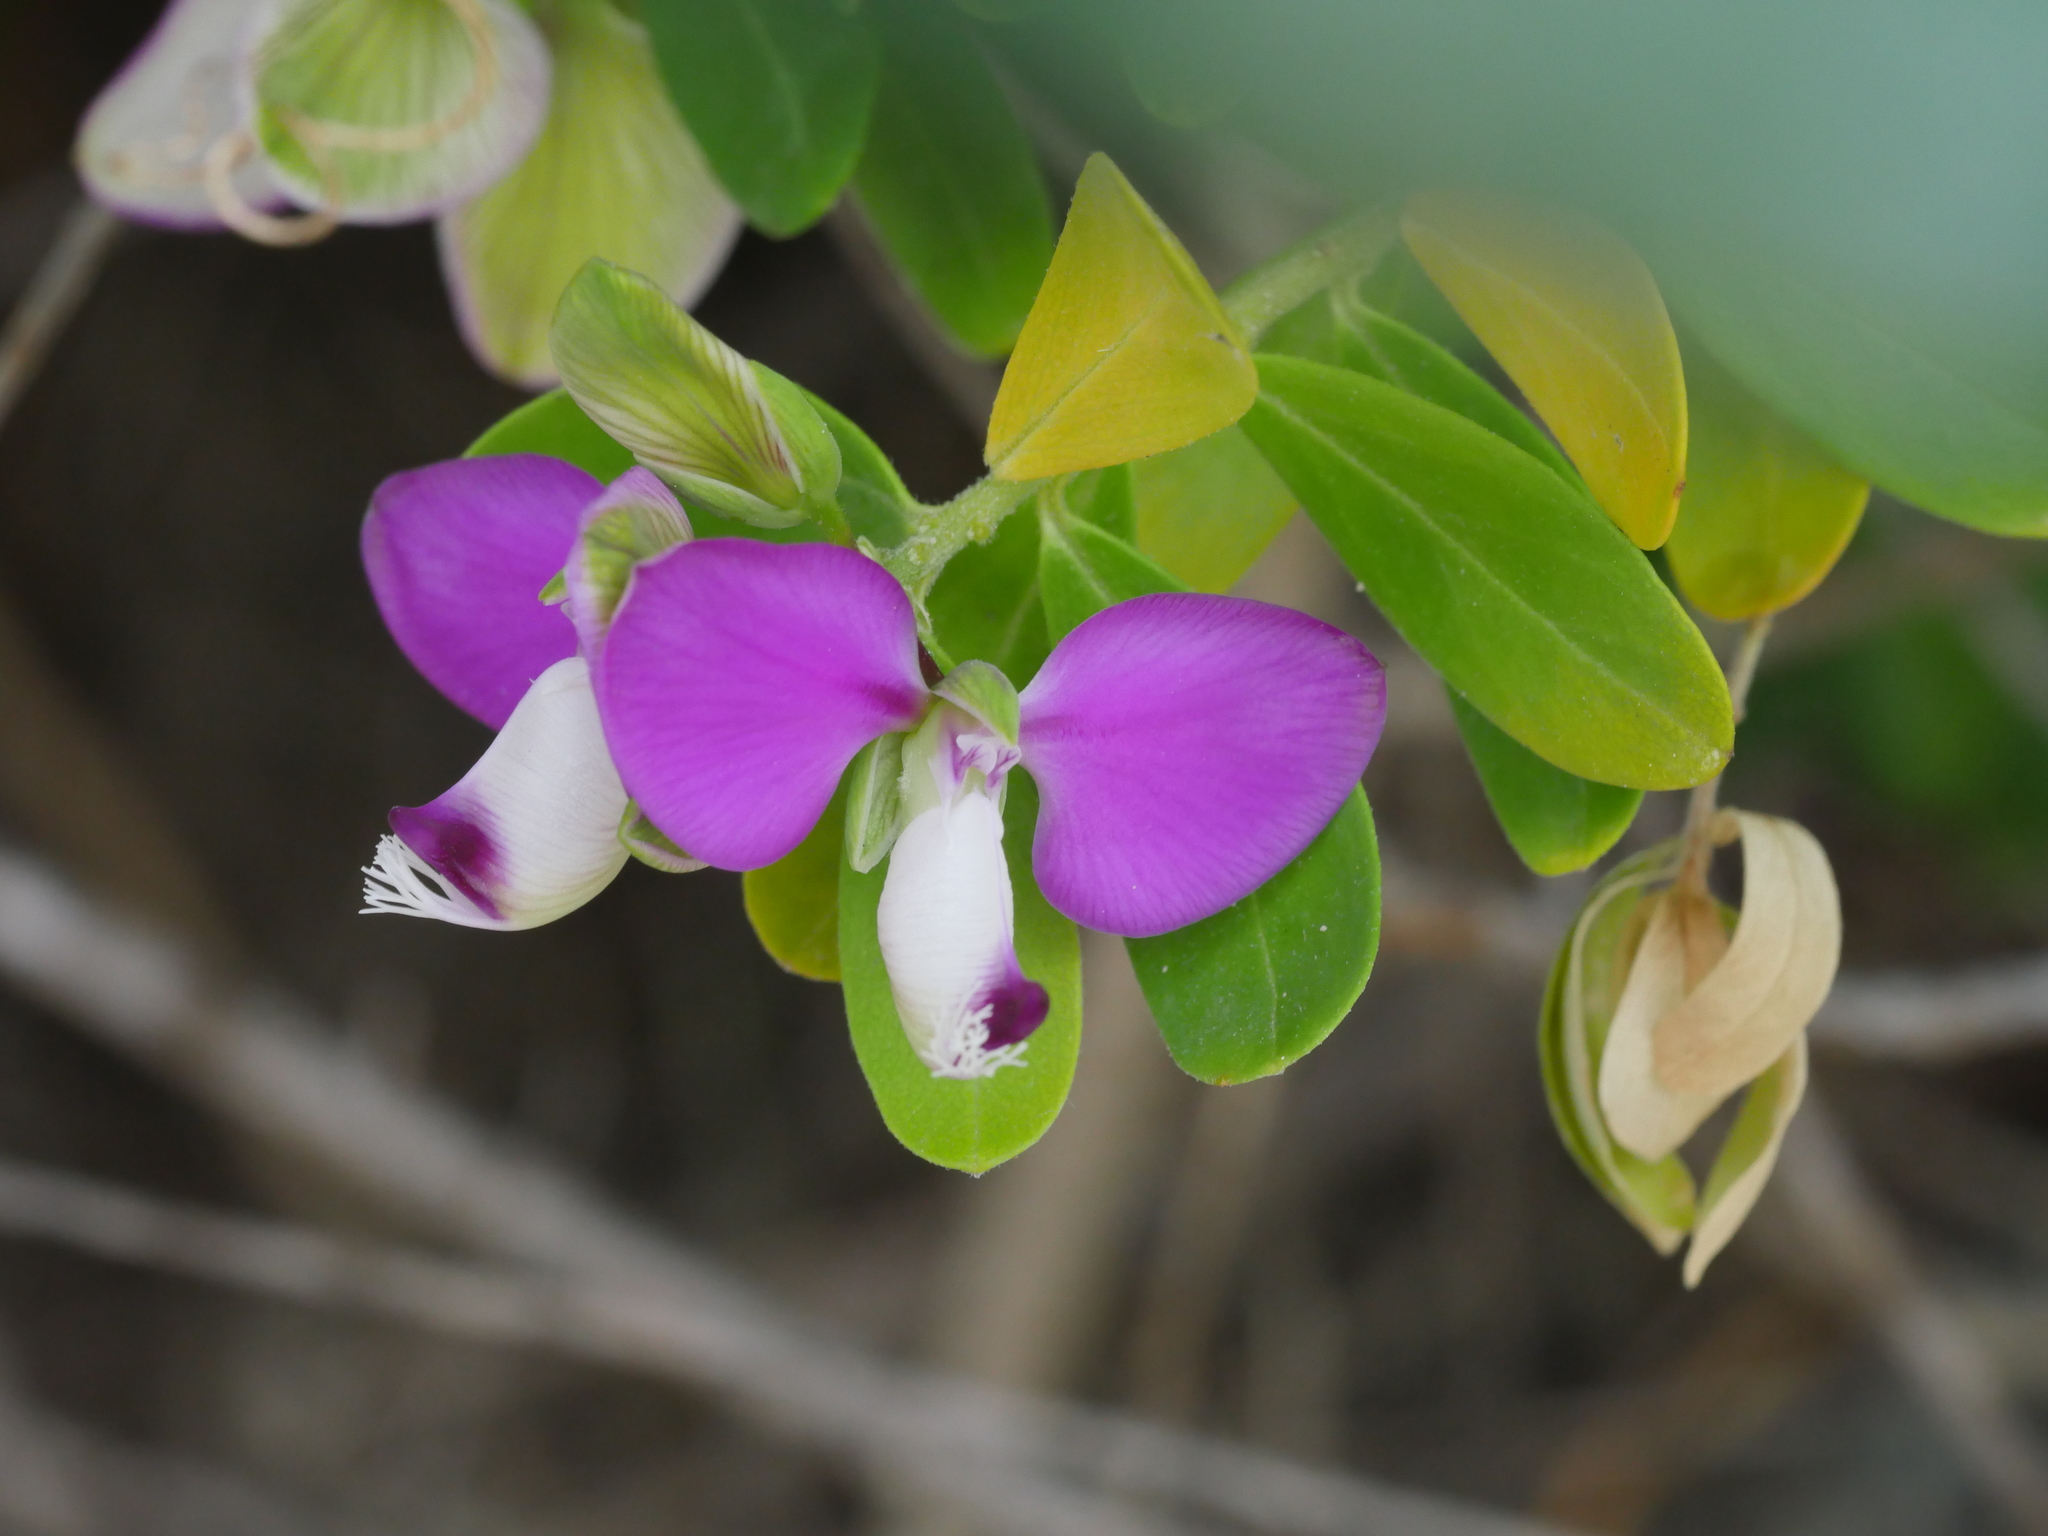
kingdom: Plantae
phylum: Tracheophyta
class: Magnoliopsida
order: Fabales
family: Polygalaceae
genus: Polygala
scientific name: Polygala myrtifolia
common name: Myrtle-leaf milkwort
